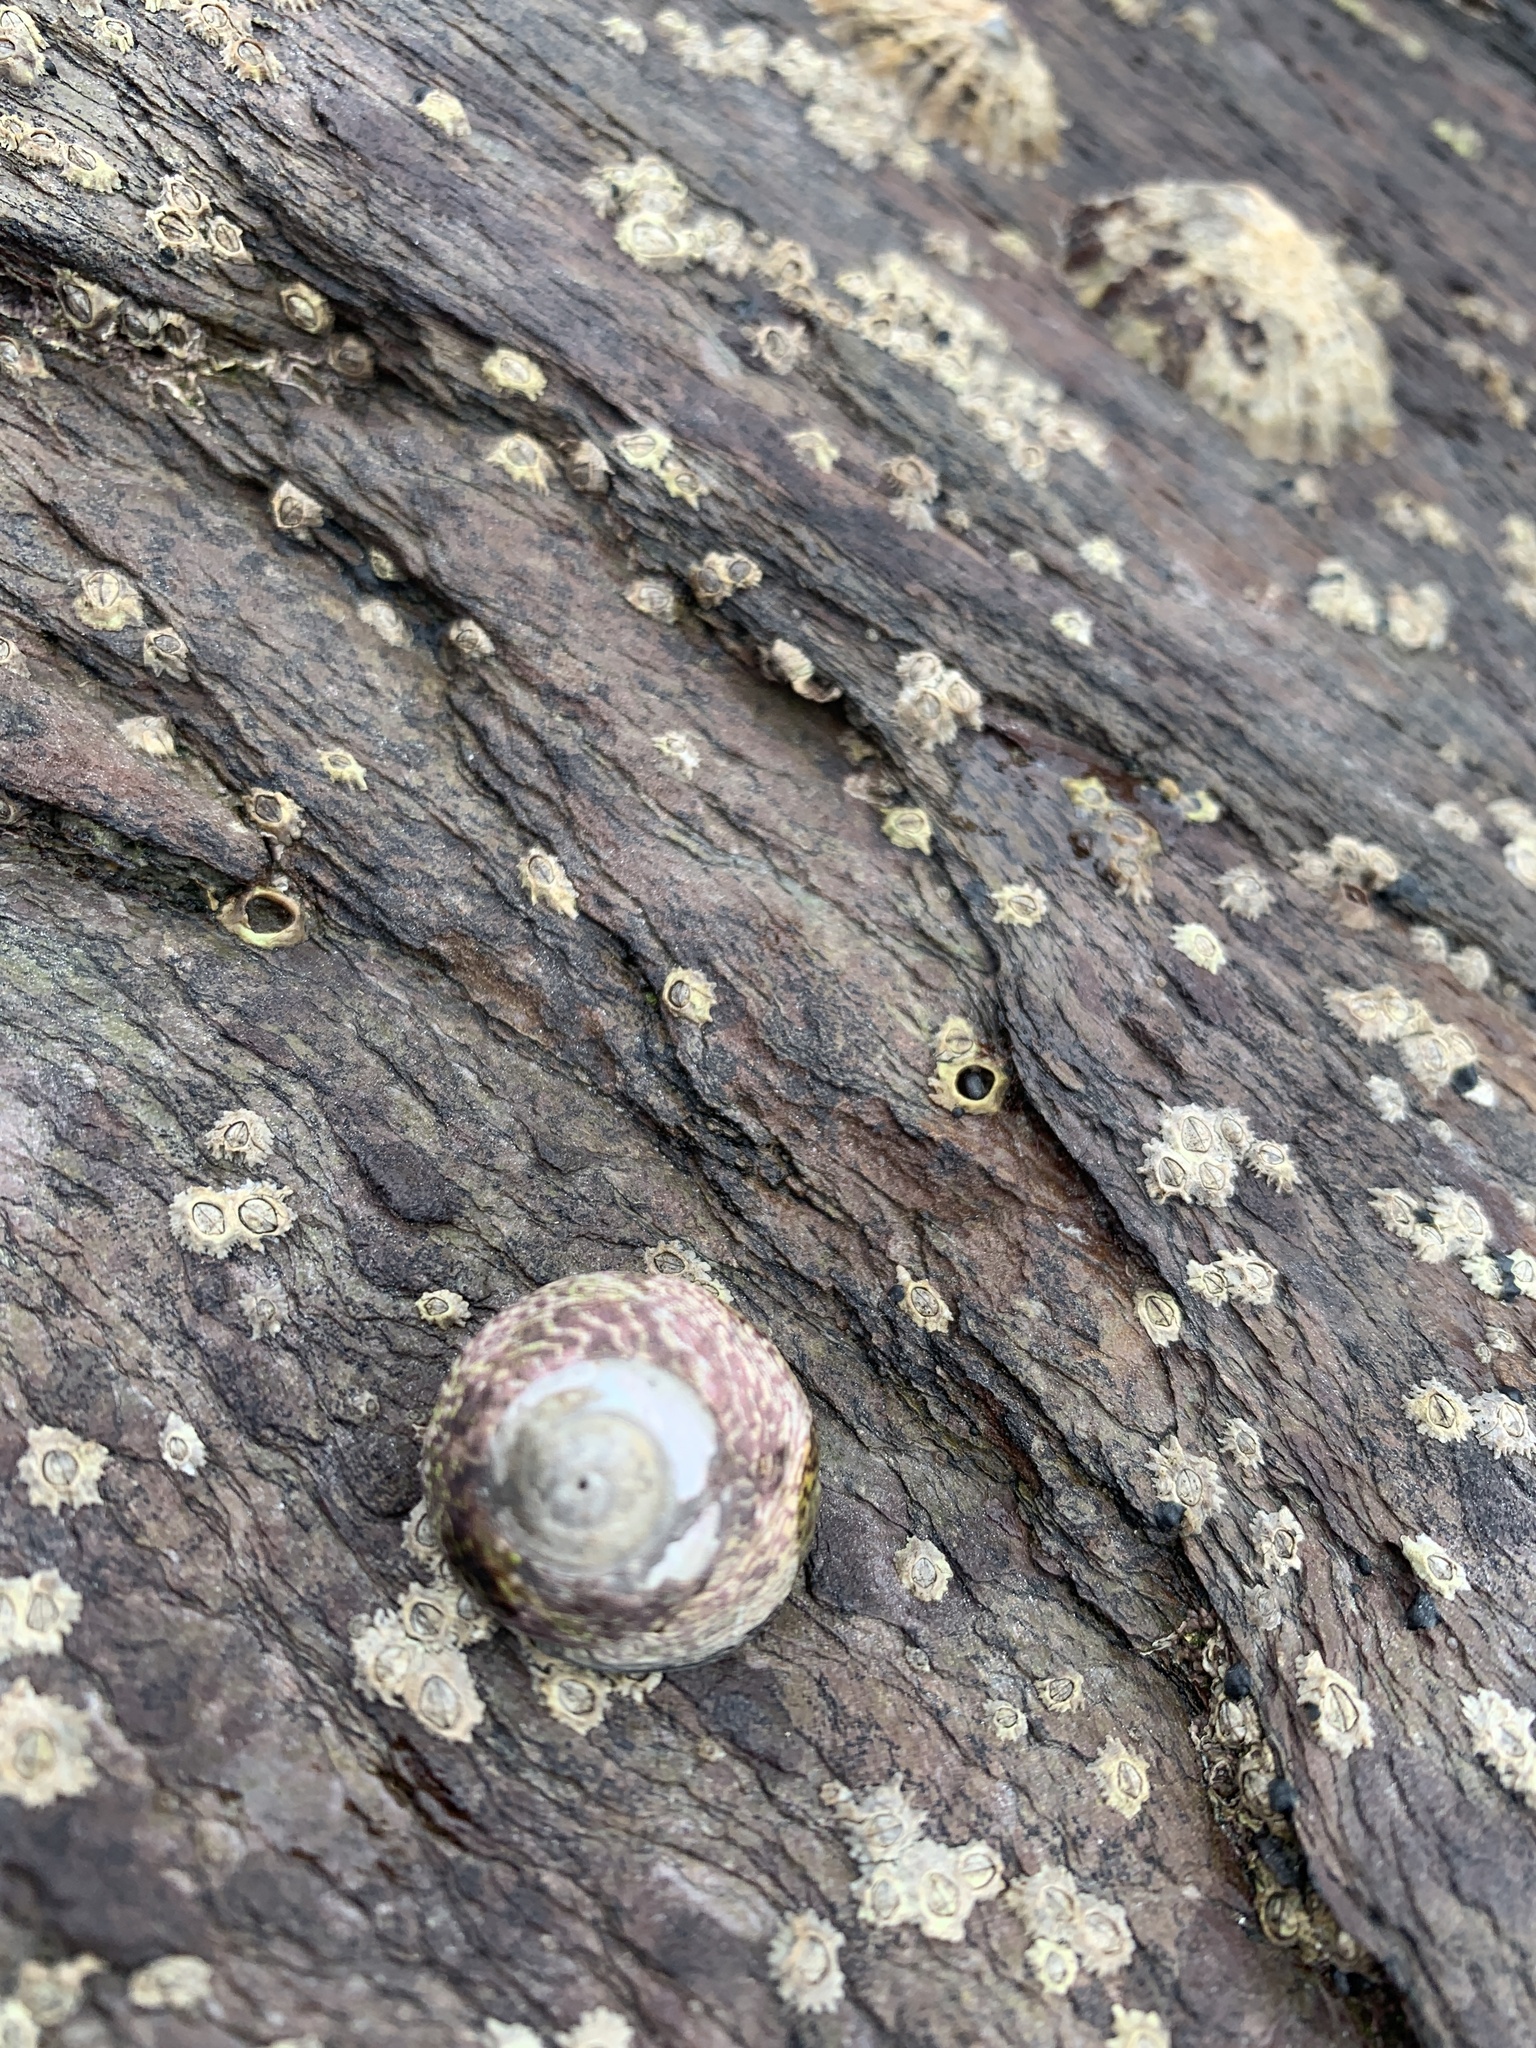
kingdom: Animalia
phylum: Mollusca
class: Gastropoda
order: Trochida
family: Trochidae
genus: Phorcus
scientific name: Phorcus lineatus
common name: Toothed top shell
